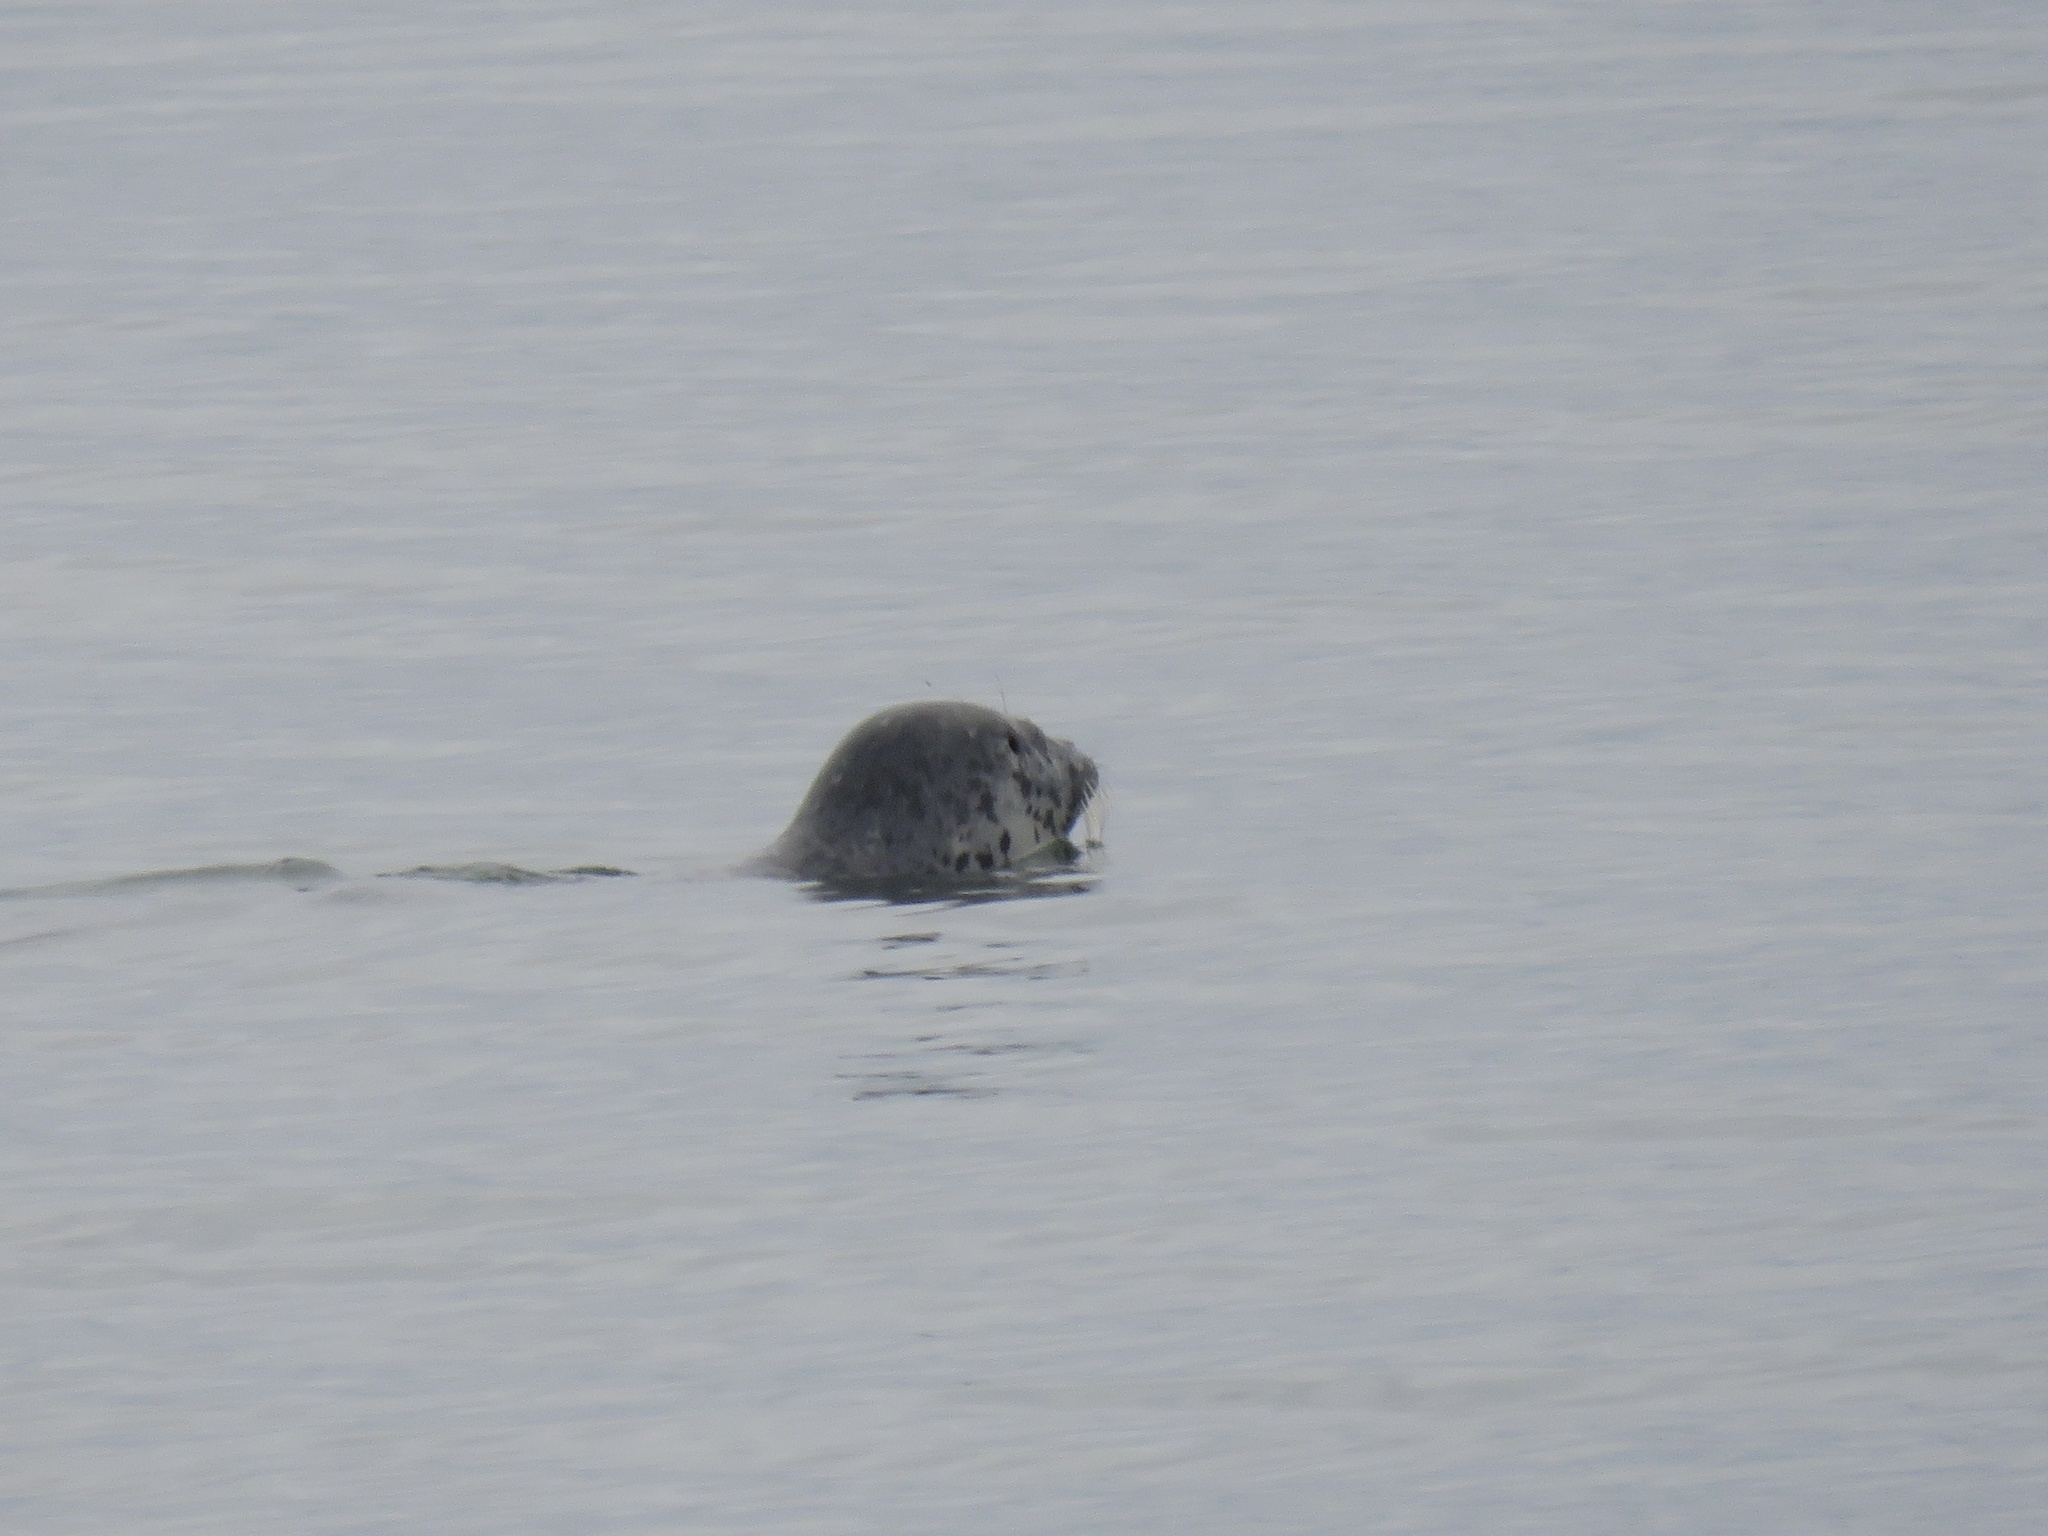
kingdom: Animalia
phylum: Chordata
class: Mammalia
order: Carnivora
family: Phocidae
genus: Phoca
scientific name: Phoca vitulina
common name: Harbor seal
